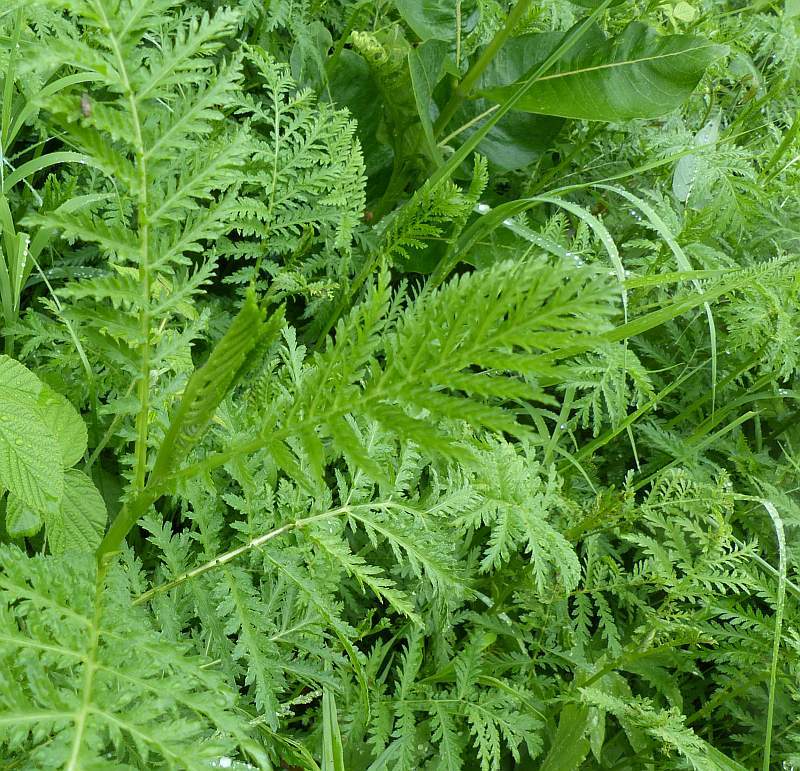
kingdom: Plantae
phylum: Tracheophyta
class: Magnoliopsida
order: Asterales
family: Asteraceae
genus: Tanacetum
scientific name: Tanacetum vulgare
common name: Common tansy
